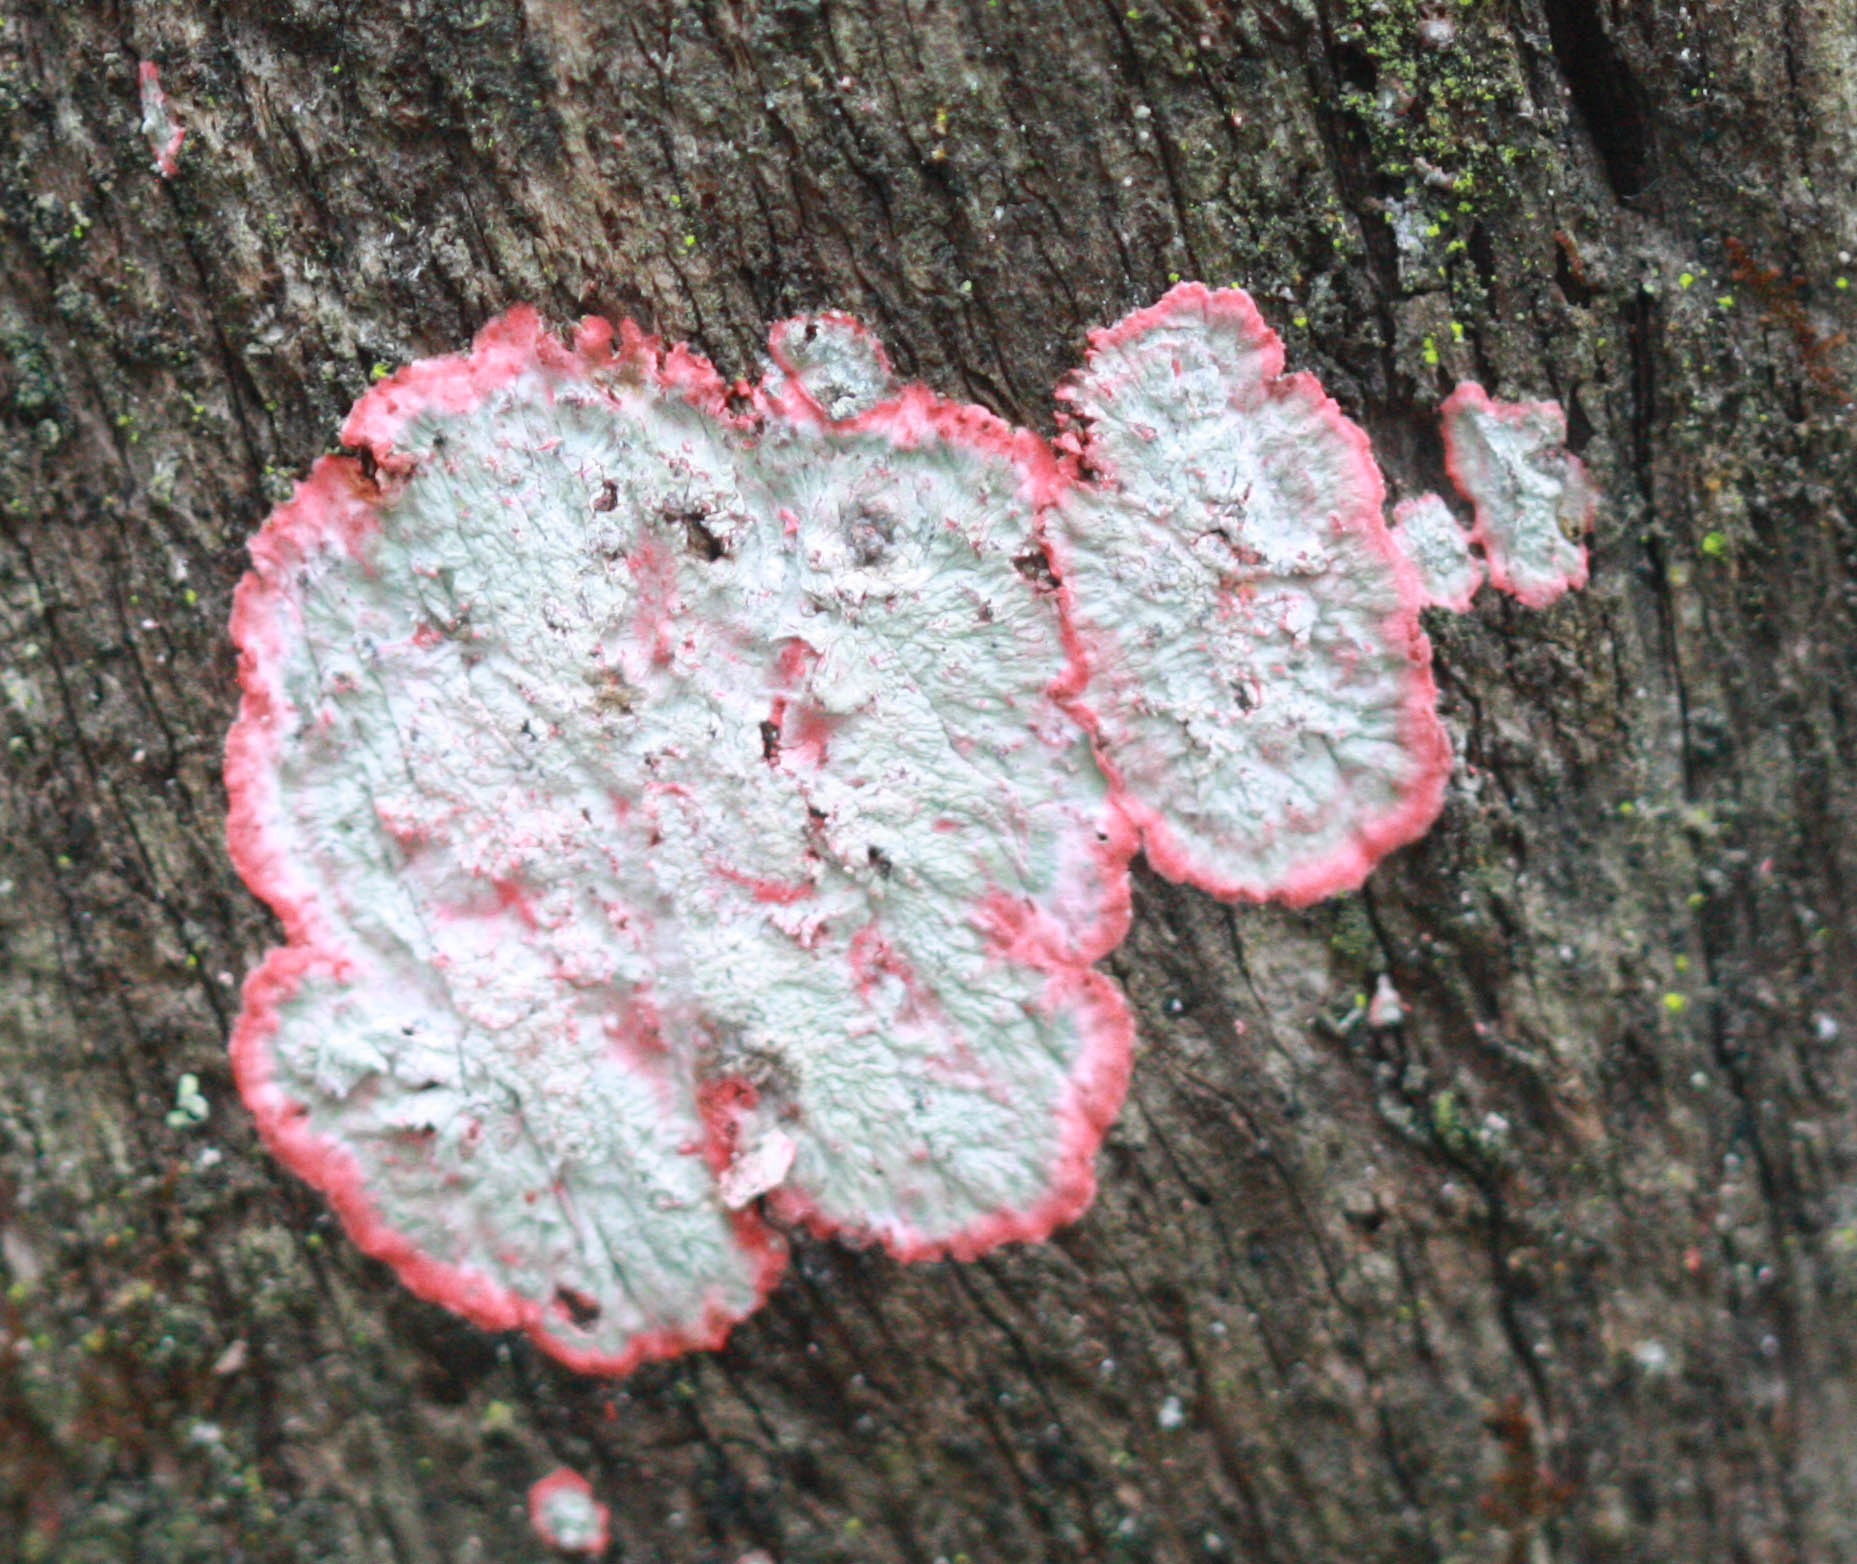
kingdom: Fungi
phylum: Ascomycota
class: Arthoniomycetes
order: Arthoniales
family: Arthoniaceae
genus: Herpothallon
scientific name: Herpothallon rubrocinctum
